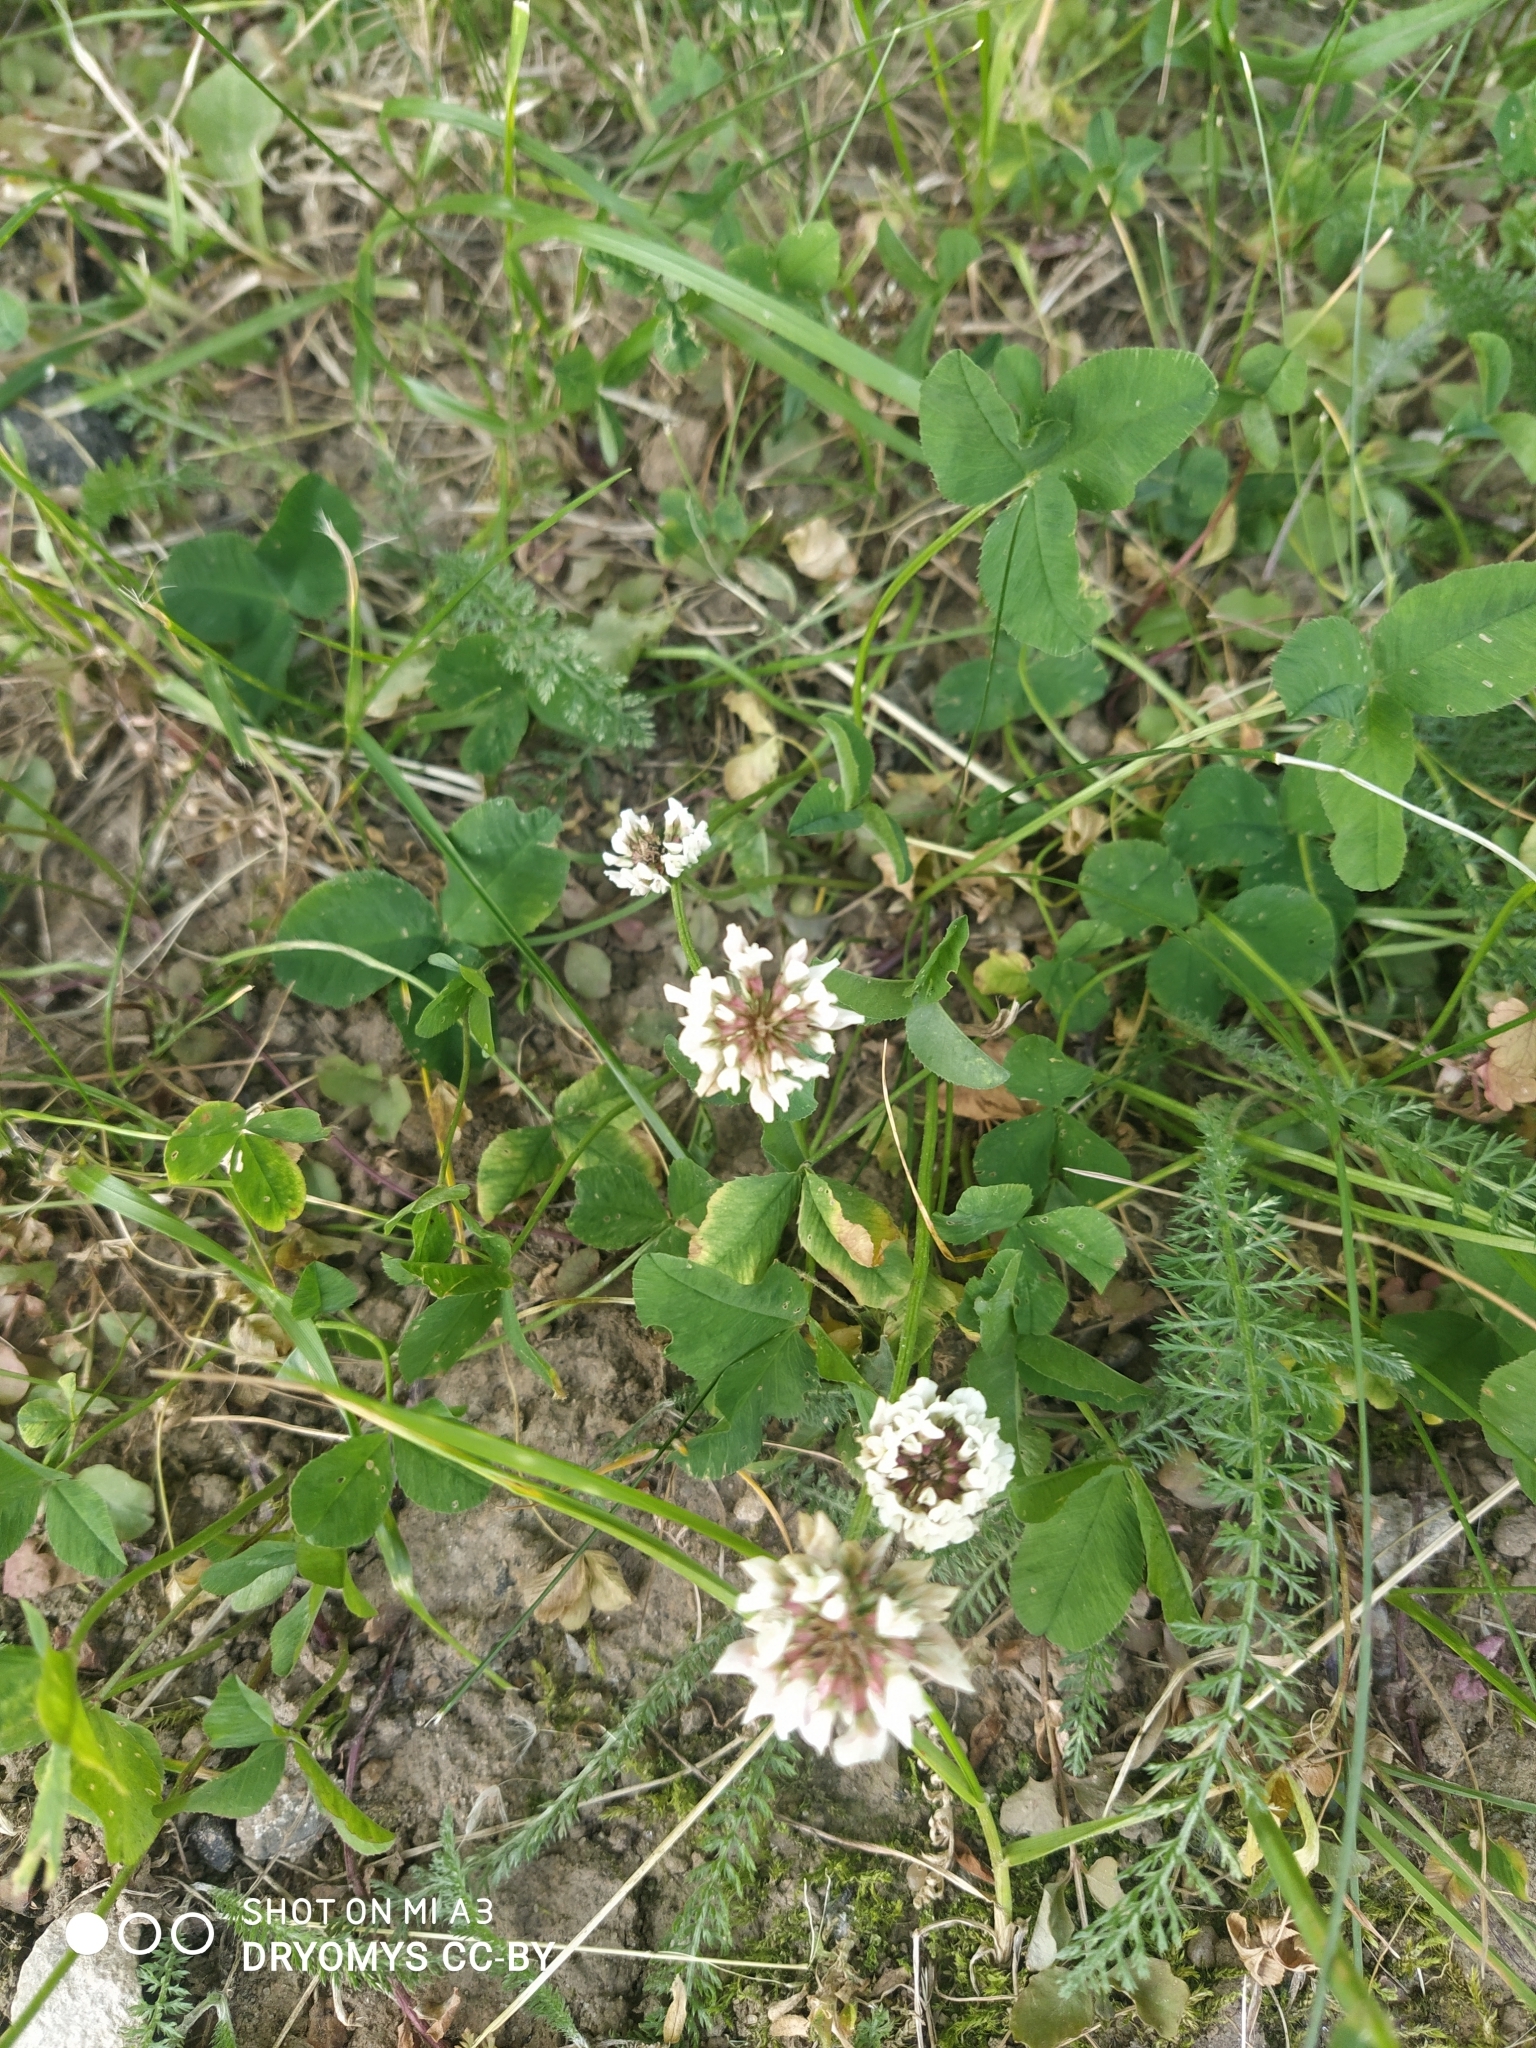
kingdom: Plantae
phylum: Tracheophyta
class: Magnoliopsida
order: Fabales
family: Fabaceae
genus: Trifolium
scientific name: Trifolium repens
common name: White clover
